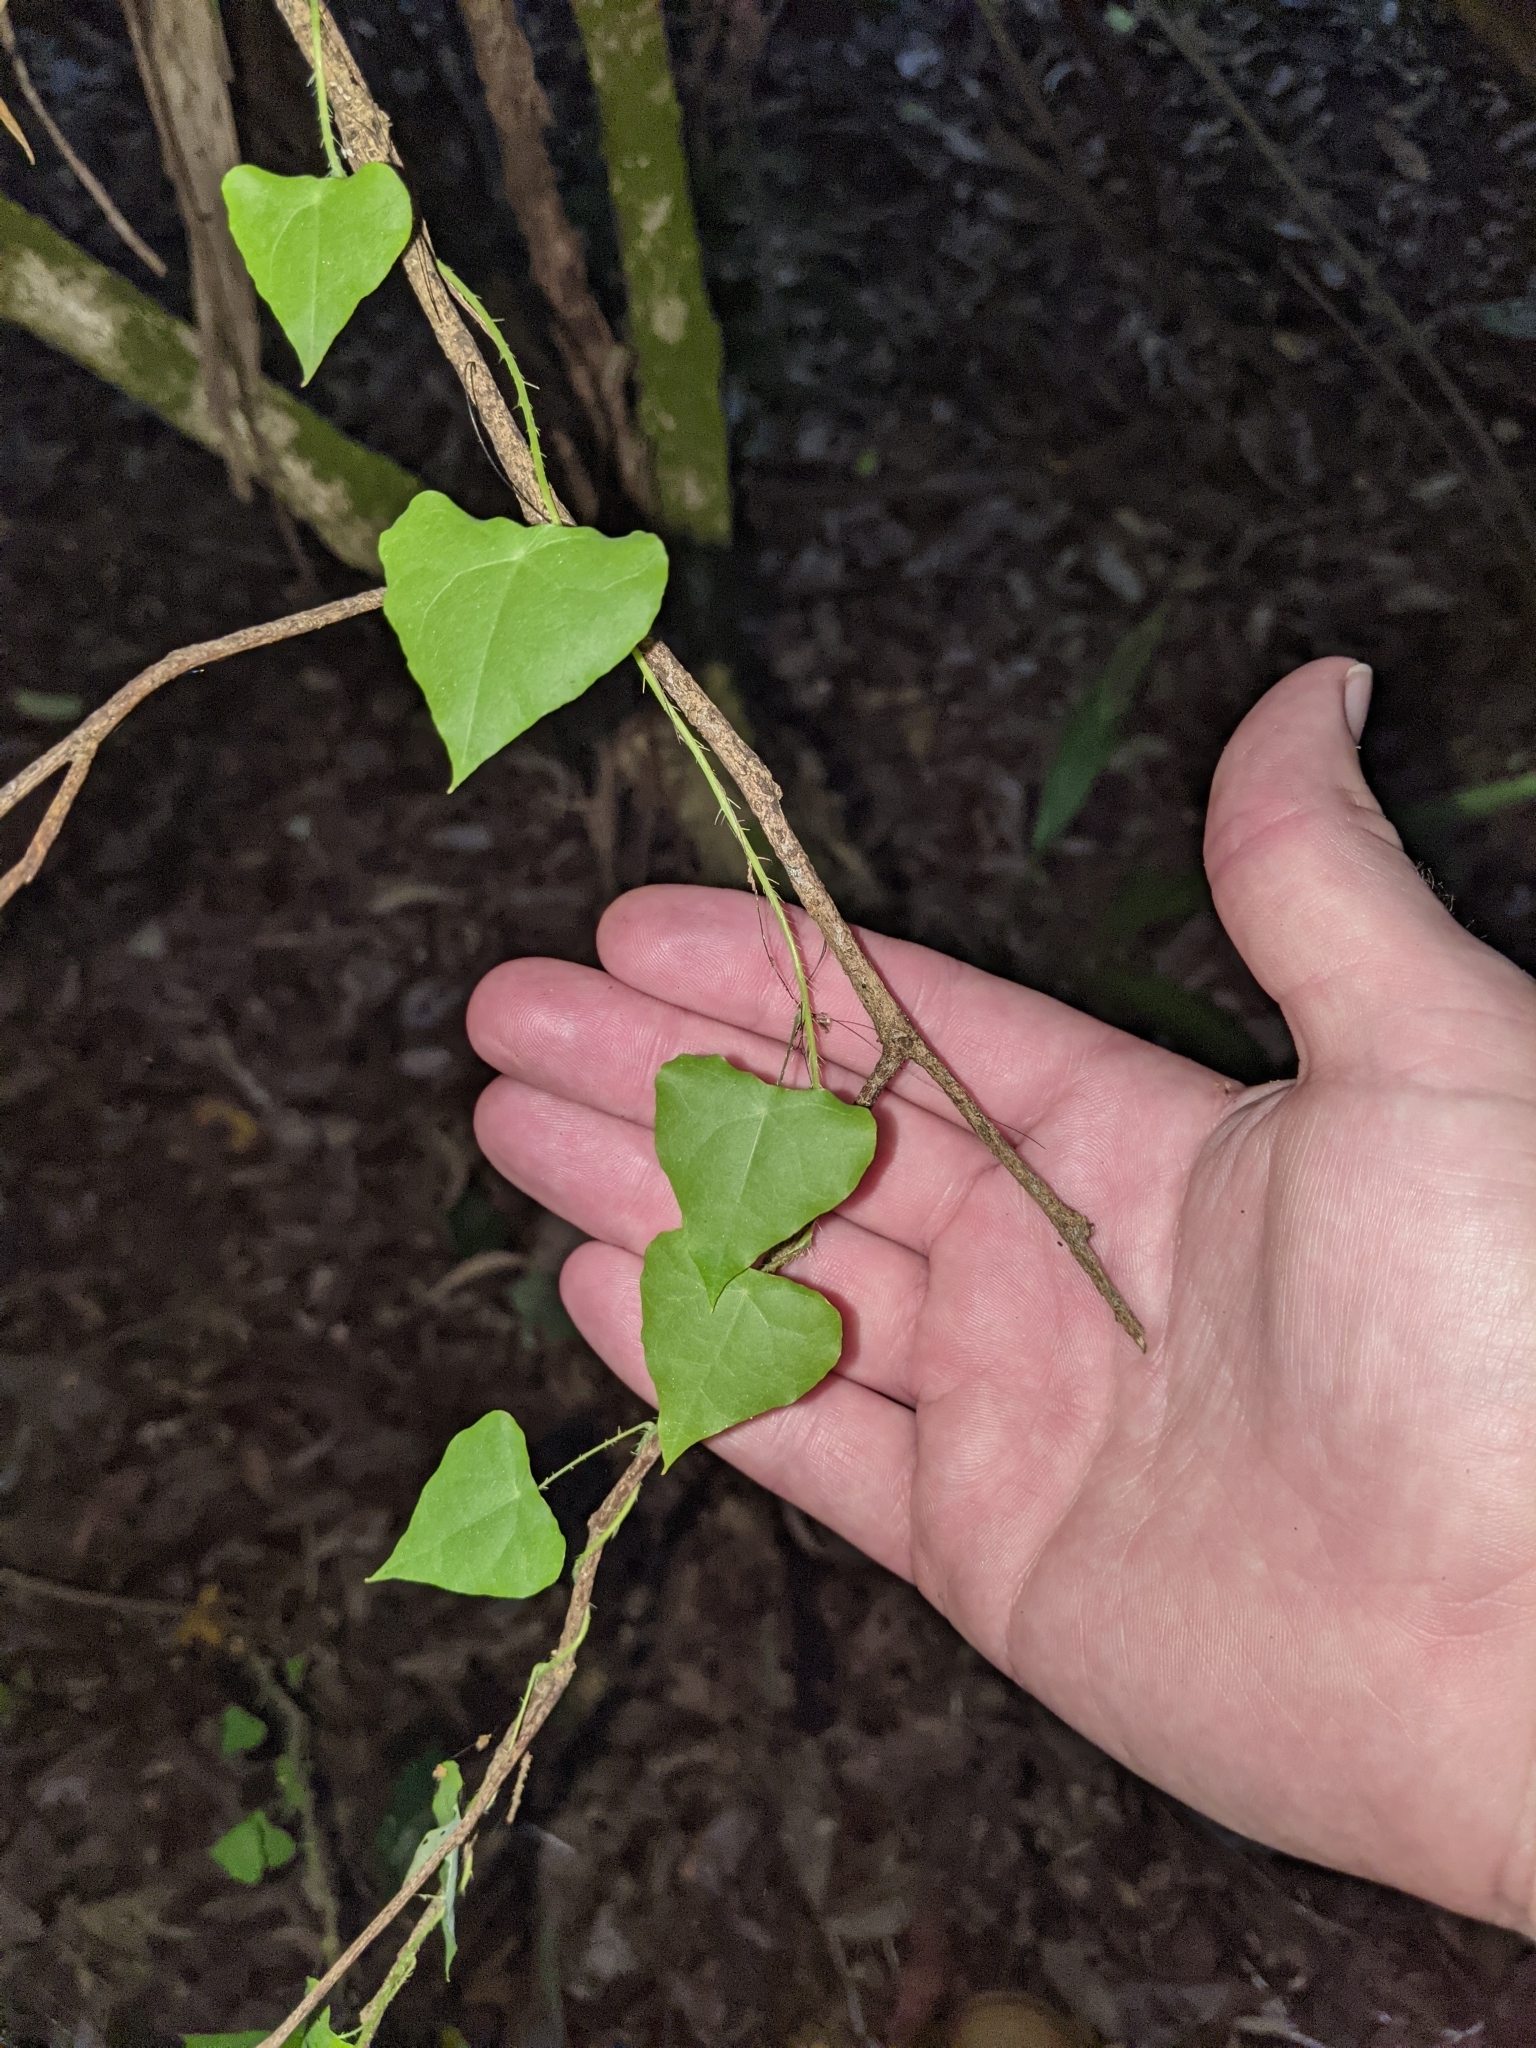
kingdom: Plantae
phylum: Tracheophyta
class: Magnoliopsida
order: Ranunculales
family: Menispermaceae
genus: Stephania
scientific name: Stephania aculeata
